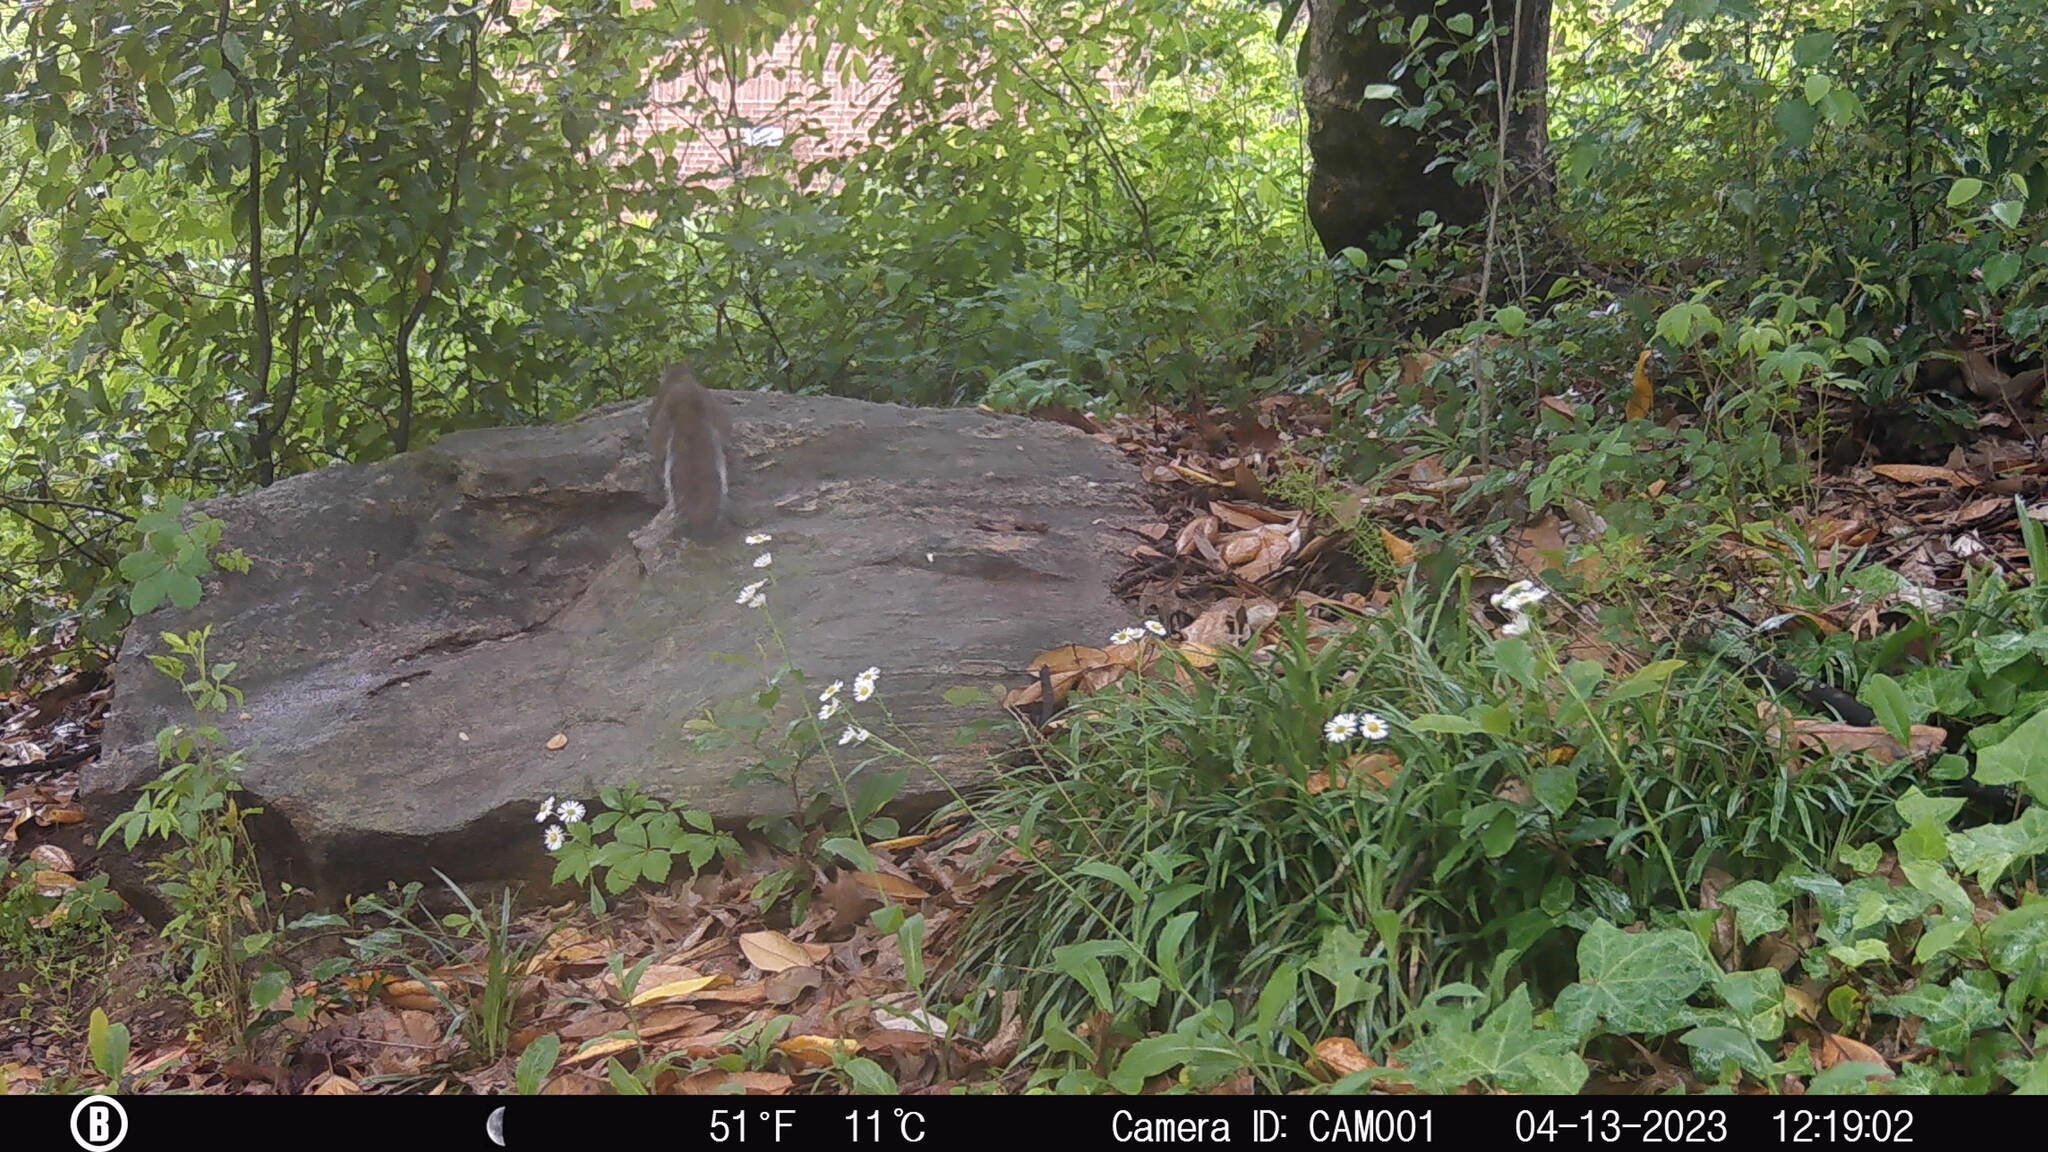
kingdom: Animalia
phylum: Chordata
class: Mammalia
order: Rodentia
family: Sciuridae
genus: Sciurus
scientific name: Sciurus carolinensis
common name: Eastern gray squirrel
